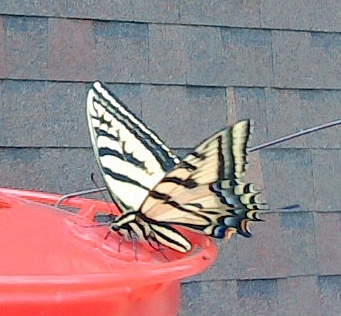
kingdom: Animalia
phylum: Arthropoda
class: Insecta
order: Lepidoptera
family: Papilionidae
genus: Papilio
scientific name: Papilio multicaudata
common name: Two-tailed tiger swallowtail
